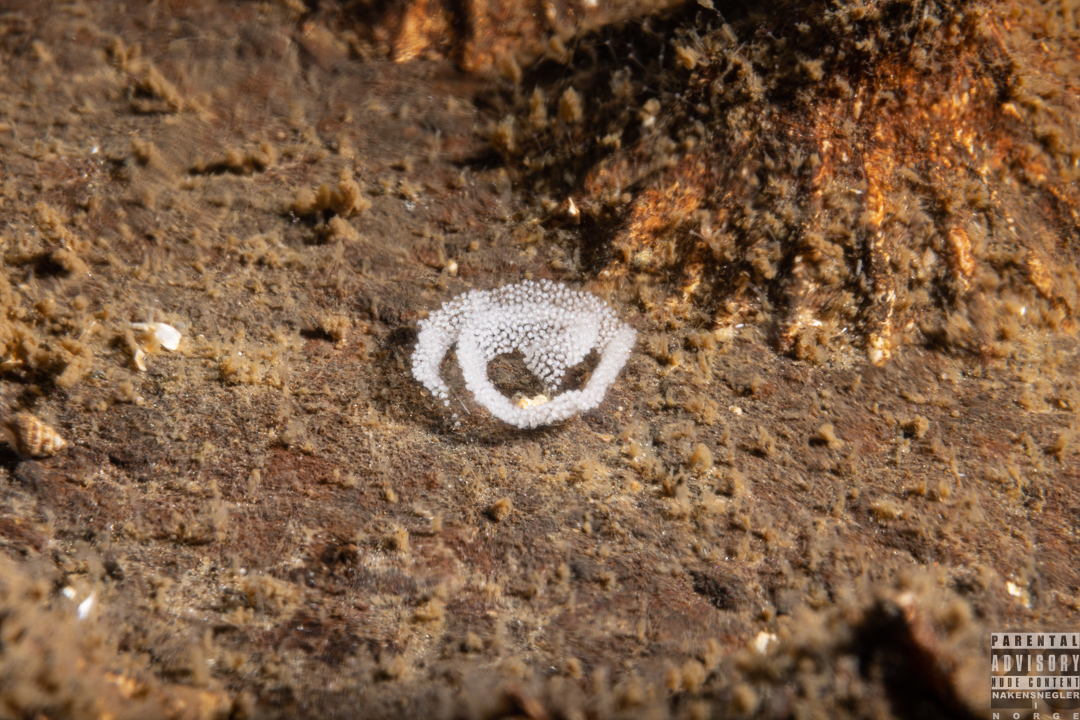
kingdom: Animalia
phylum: Mollusca
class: Gastropoda
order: Nudibranchia
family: Eubranchidae
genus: Amphorina
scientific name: Amphorina pallida
